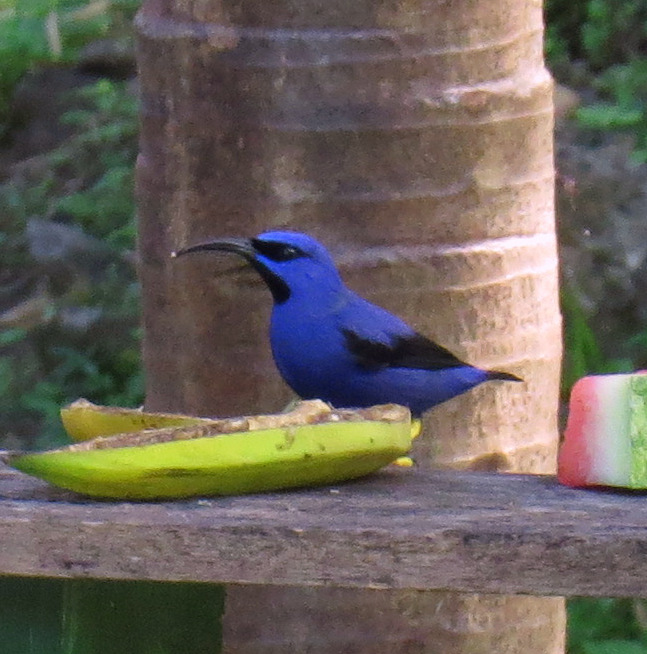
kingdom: Animalia
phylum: Chordata
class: Aves
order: Passeriformes
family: Thraupidae
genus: Cyanerpes
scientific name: Cyanerpes caeruleus
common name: Purple honeycreeper
